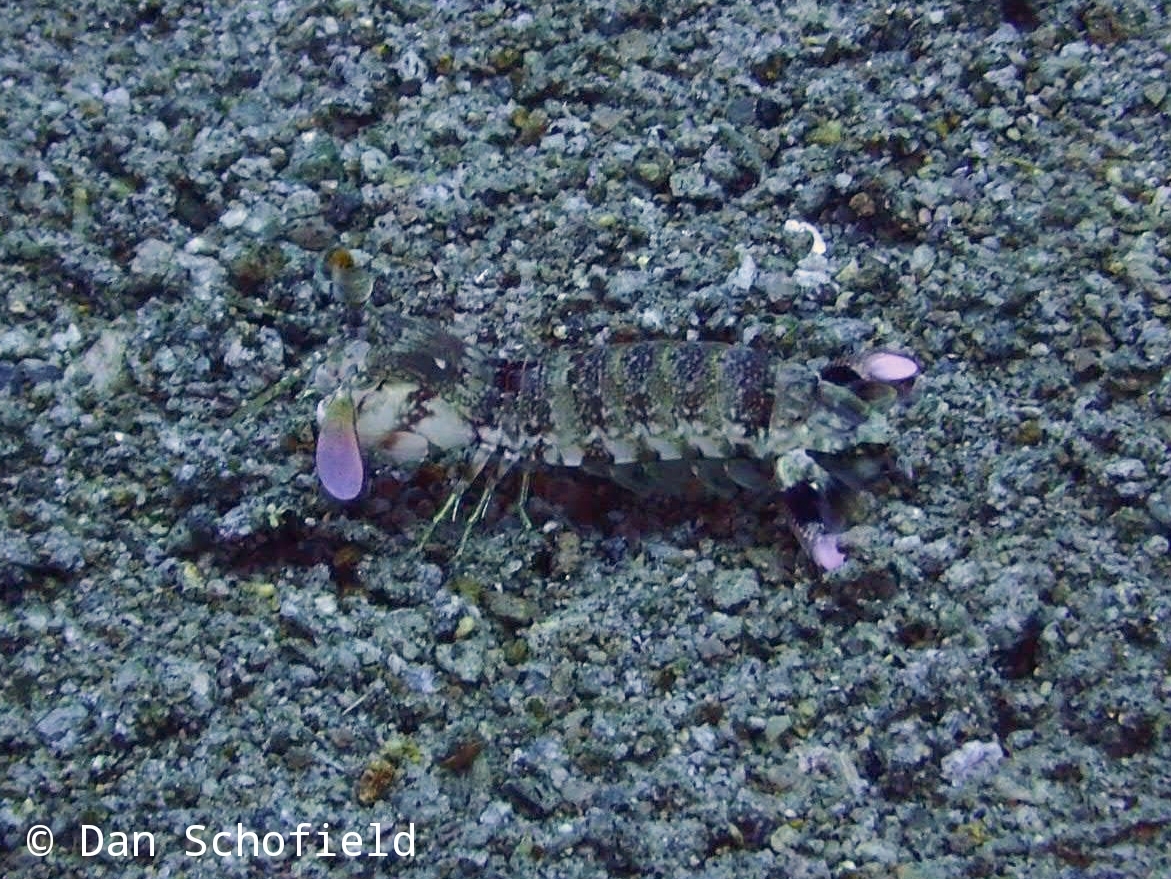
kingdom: Animalia
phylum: Arthropoda
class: Malacostraca
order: Stomatopoda
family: Odontodactylidae
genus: Odontodactylus
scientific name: Odontodactylus latirostris
